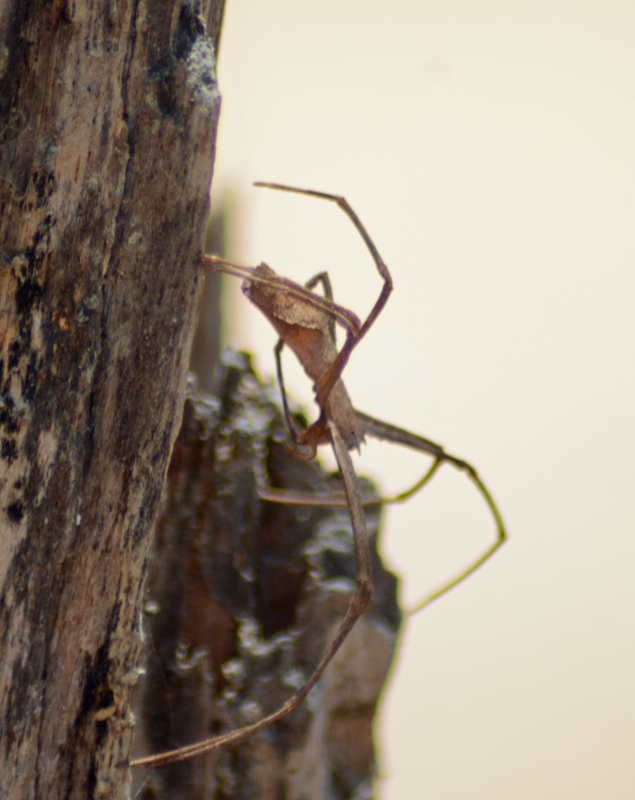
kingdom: Animalia
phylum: Arthropoda
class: Arachnida
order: Araneae
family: Deinopidae
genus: Deinopis
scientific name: Deinopis aurita
